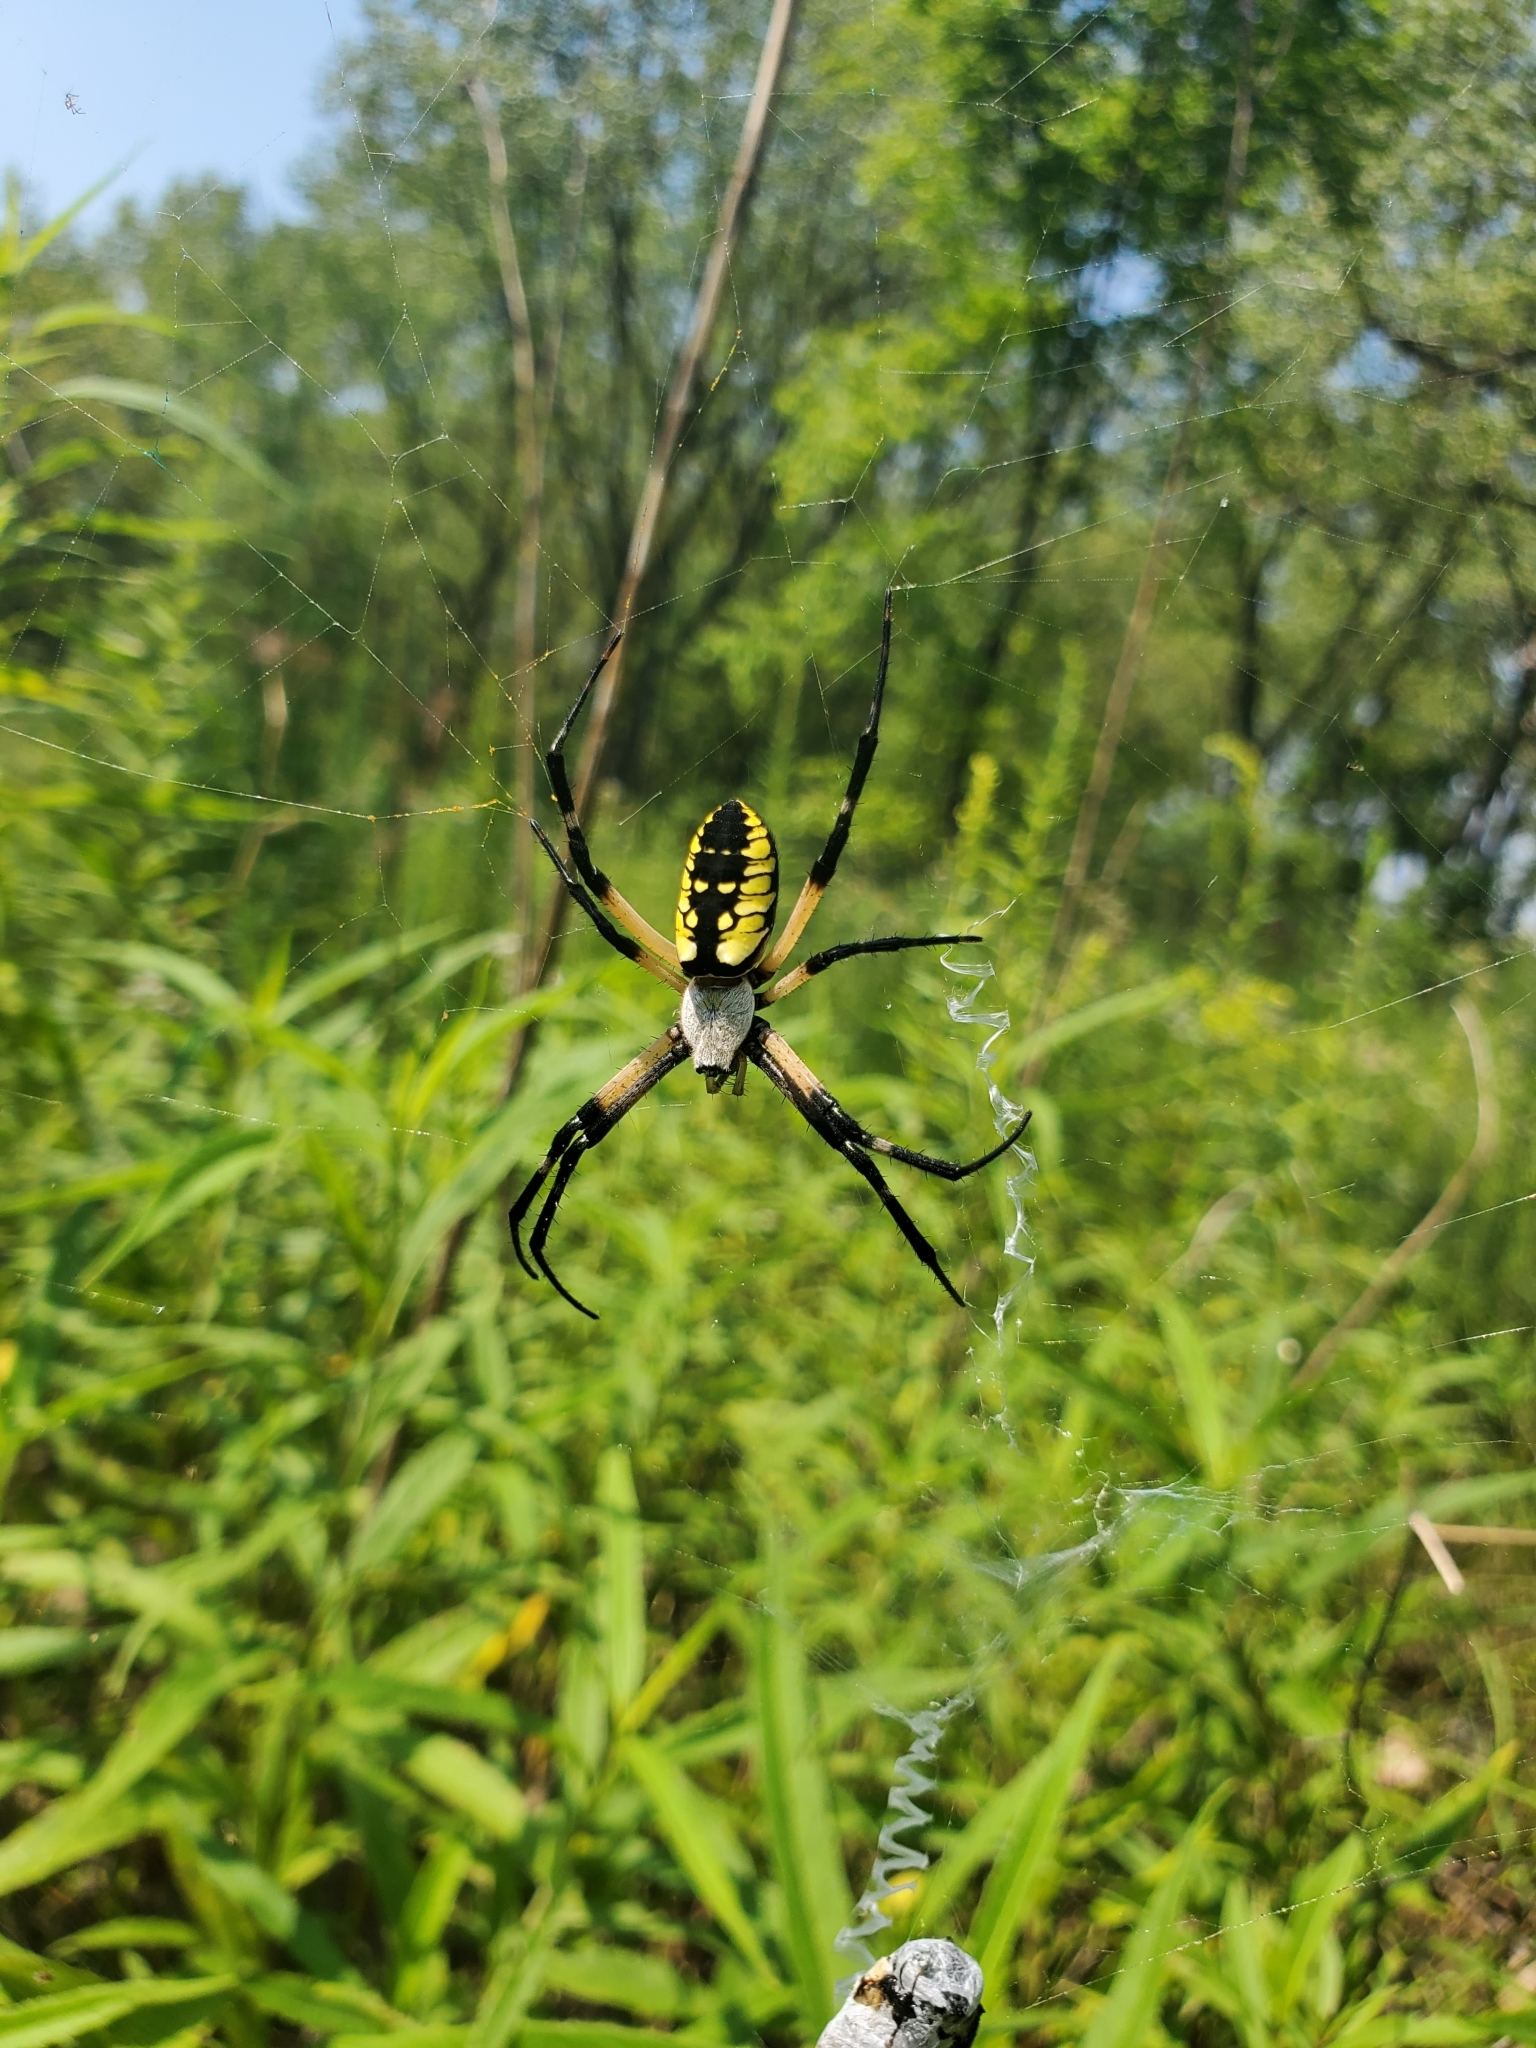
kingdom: Animalia
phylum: Arthropoda
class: Arachnida
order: Araneae
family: Araneidae
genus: Argiope
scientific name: Argiope aurantia
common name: Orb weavers
